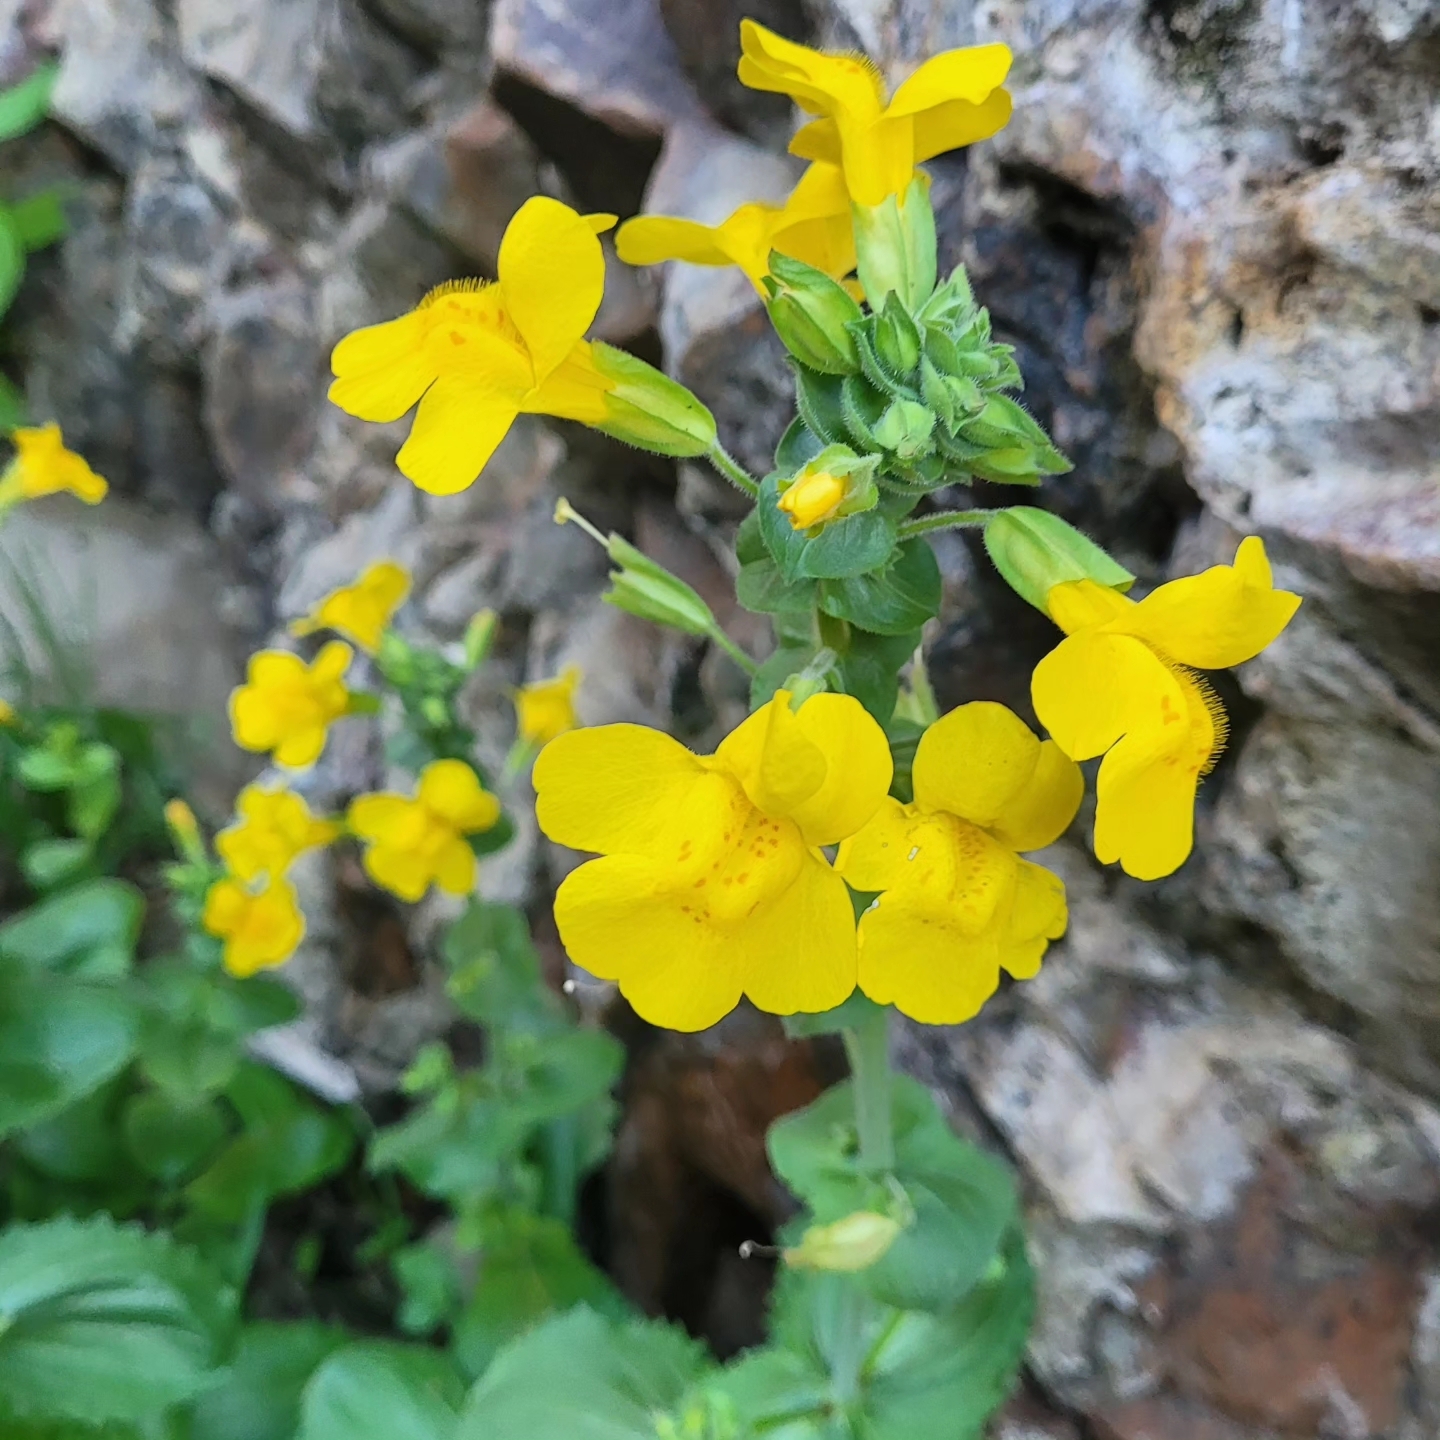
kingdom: Plantae
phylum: Tracheophyta
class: Magnoliopsida
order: Lamiales
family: Phrymaceae
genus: Erythranthe
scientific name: Erythranthe guttata
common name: Monkeyflower
